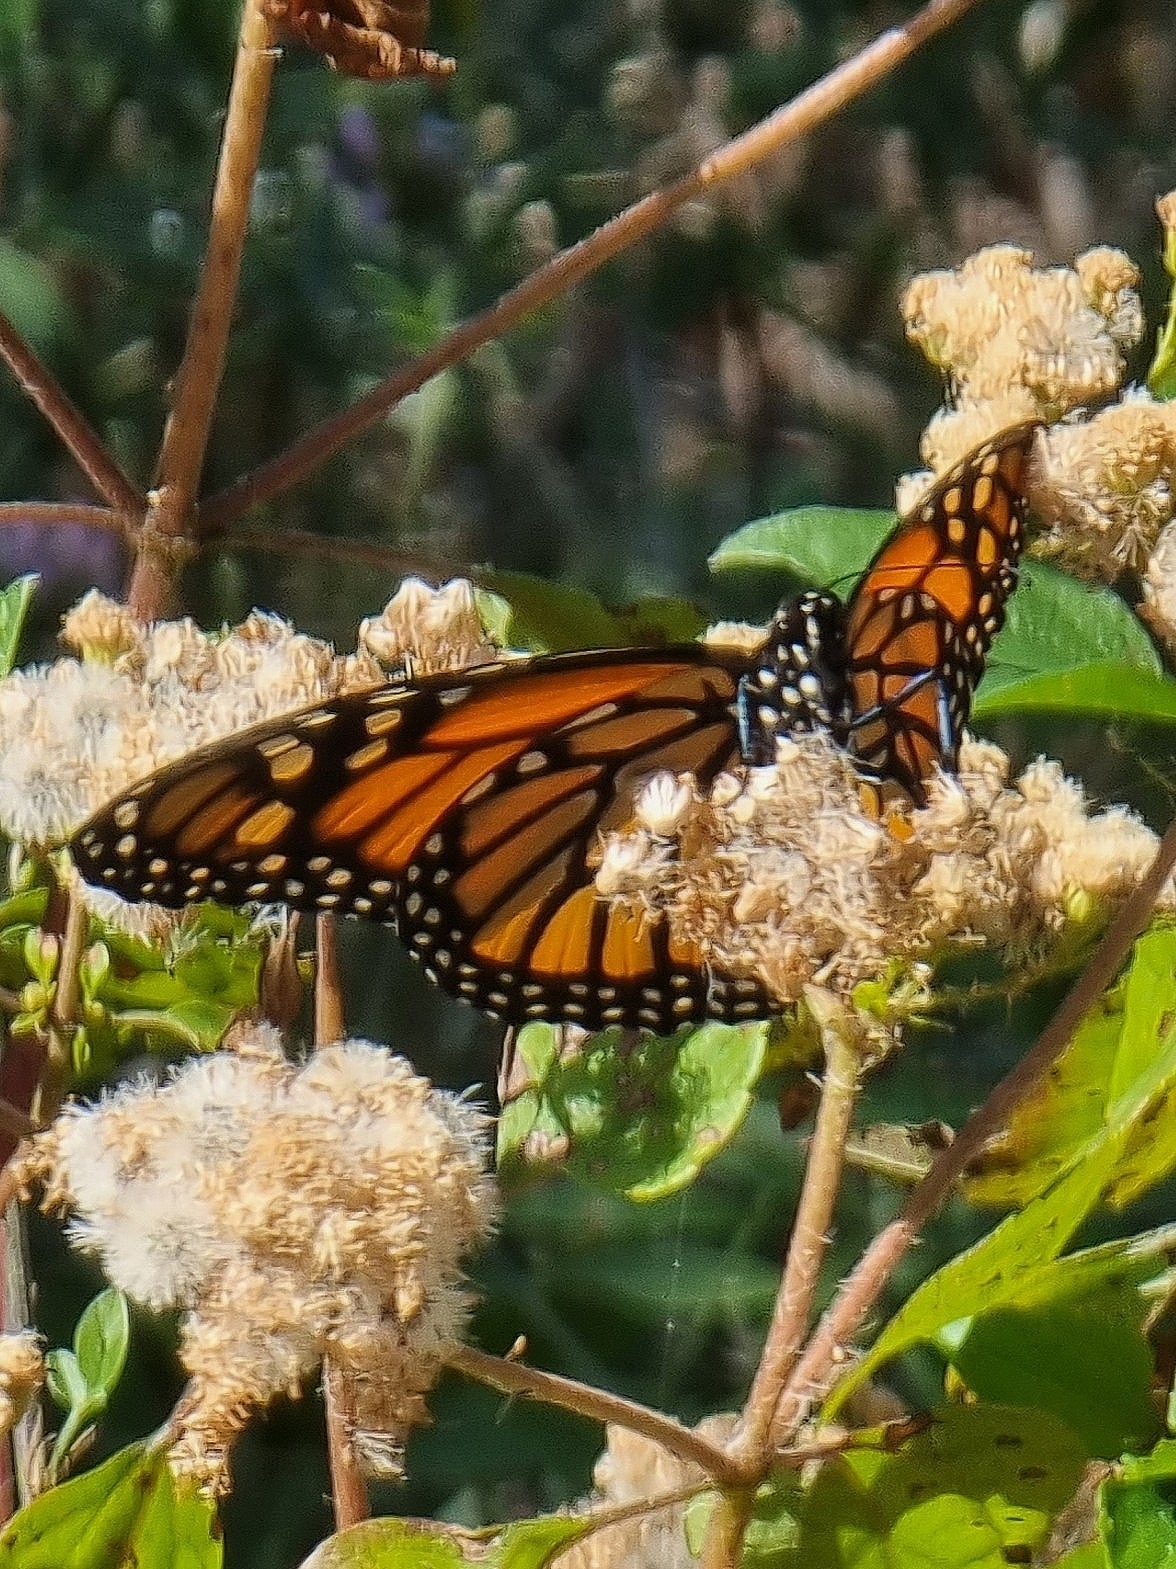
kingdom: Animalia
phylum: Arthropoda
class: Insecta
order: Lepidoptera
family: Nymphalidae
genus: Danaus
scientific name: Danaus plexippus
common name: Monarch
